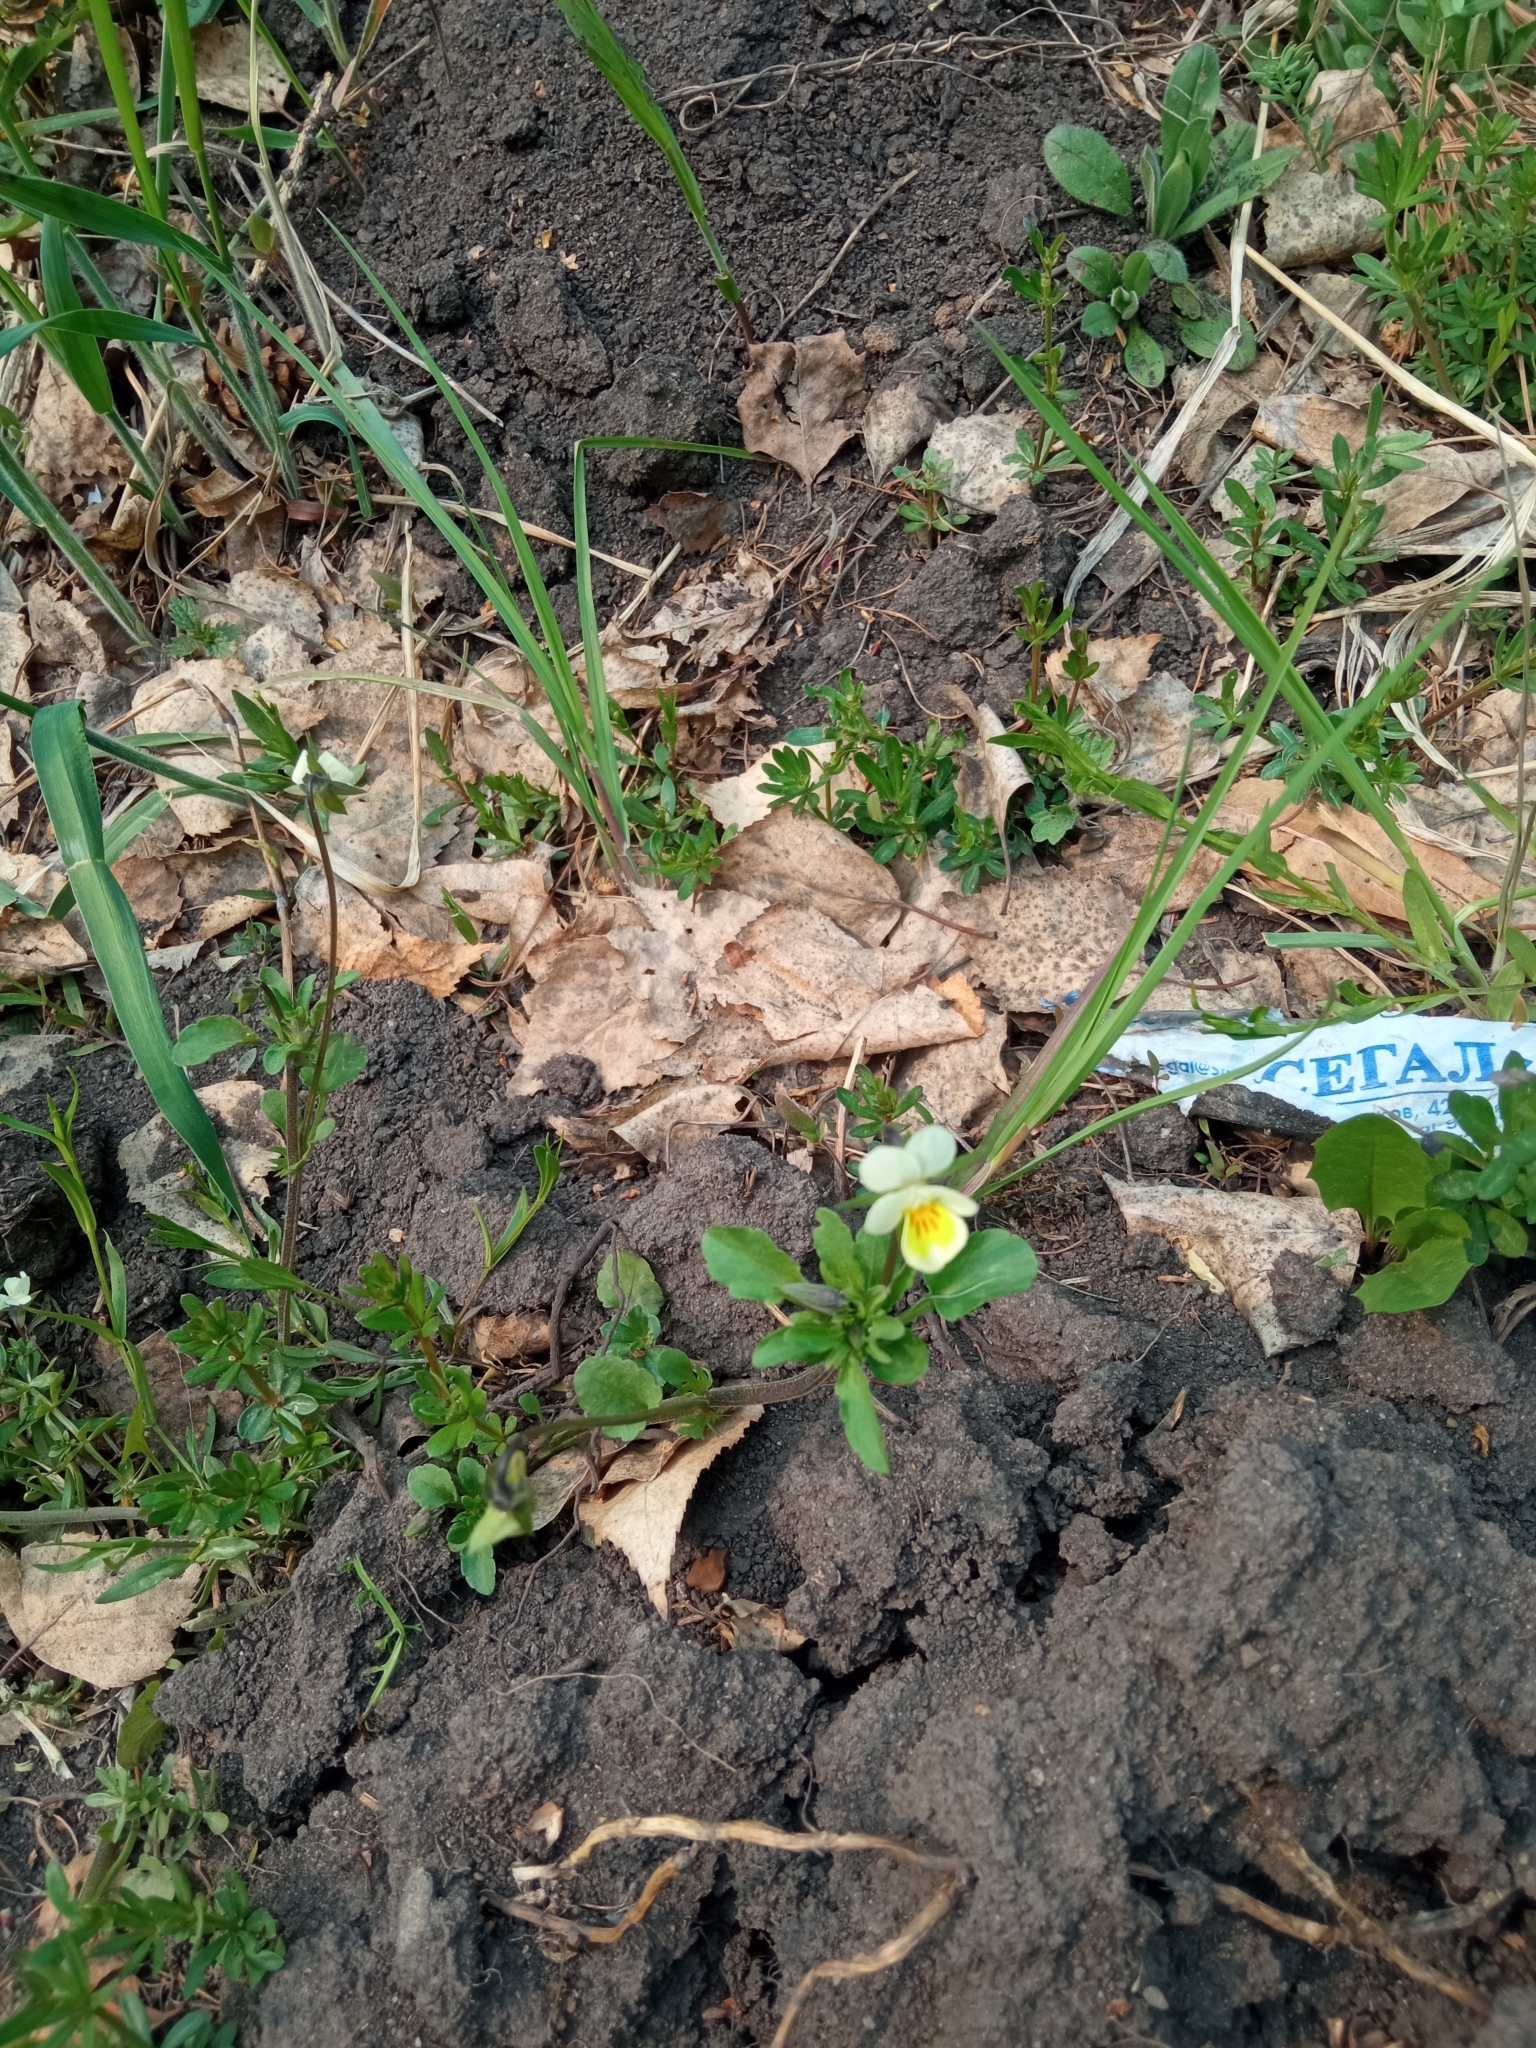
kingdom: Plantae
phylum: Tracheophyta
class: Magnoliopsida
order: Malpighiales
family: Violaceae
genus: Viola
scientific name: Viola arvensis
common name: Field pansy
